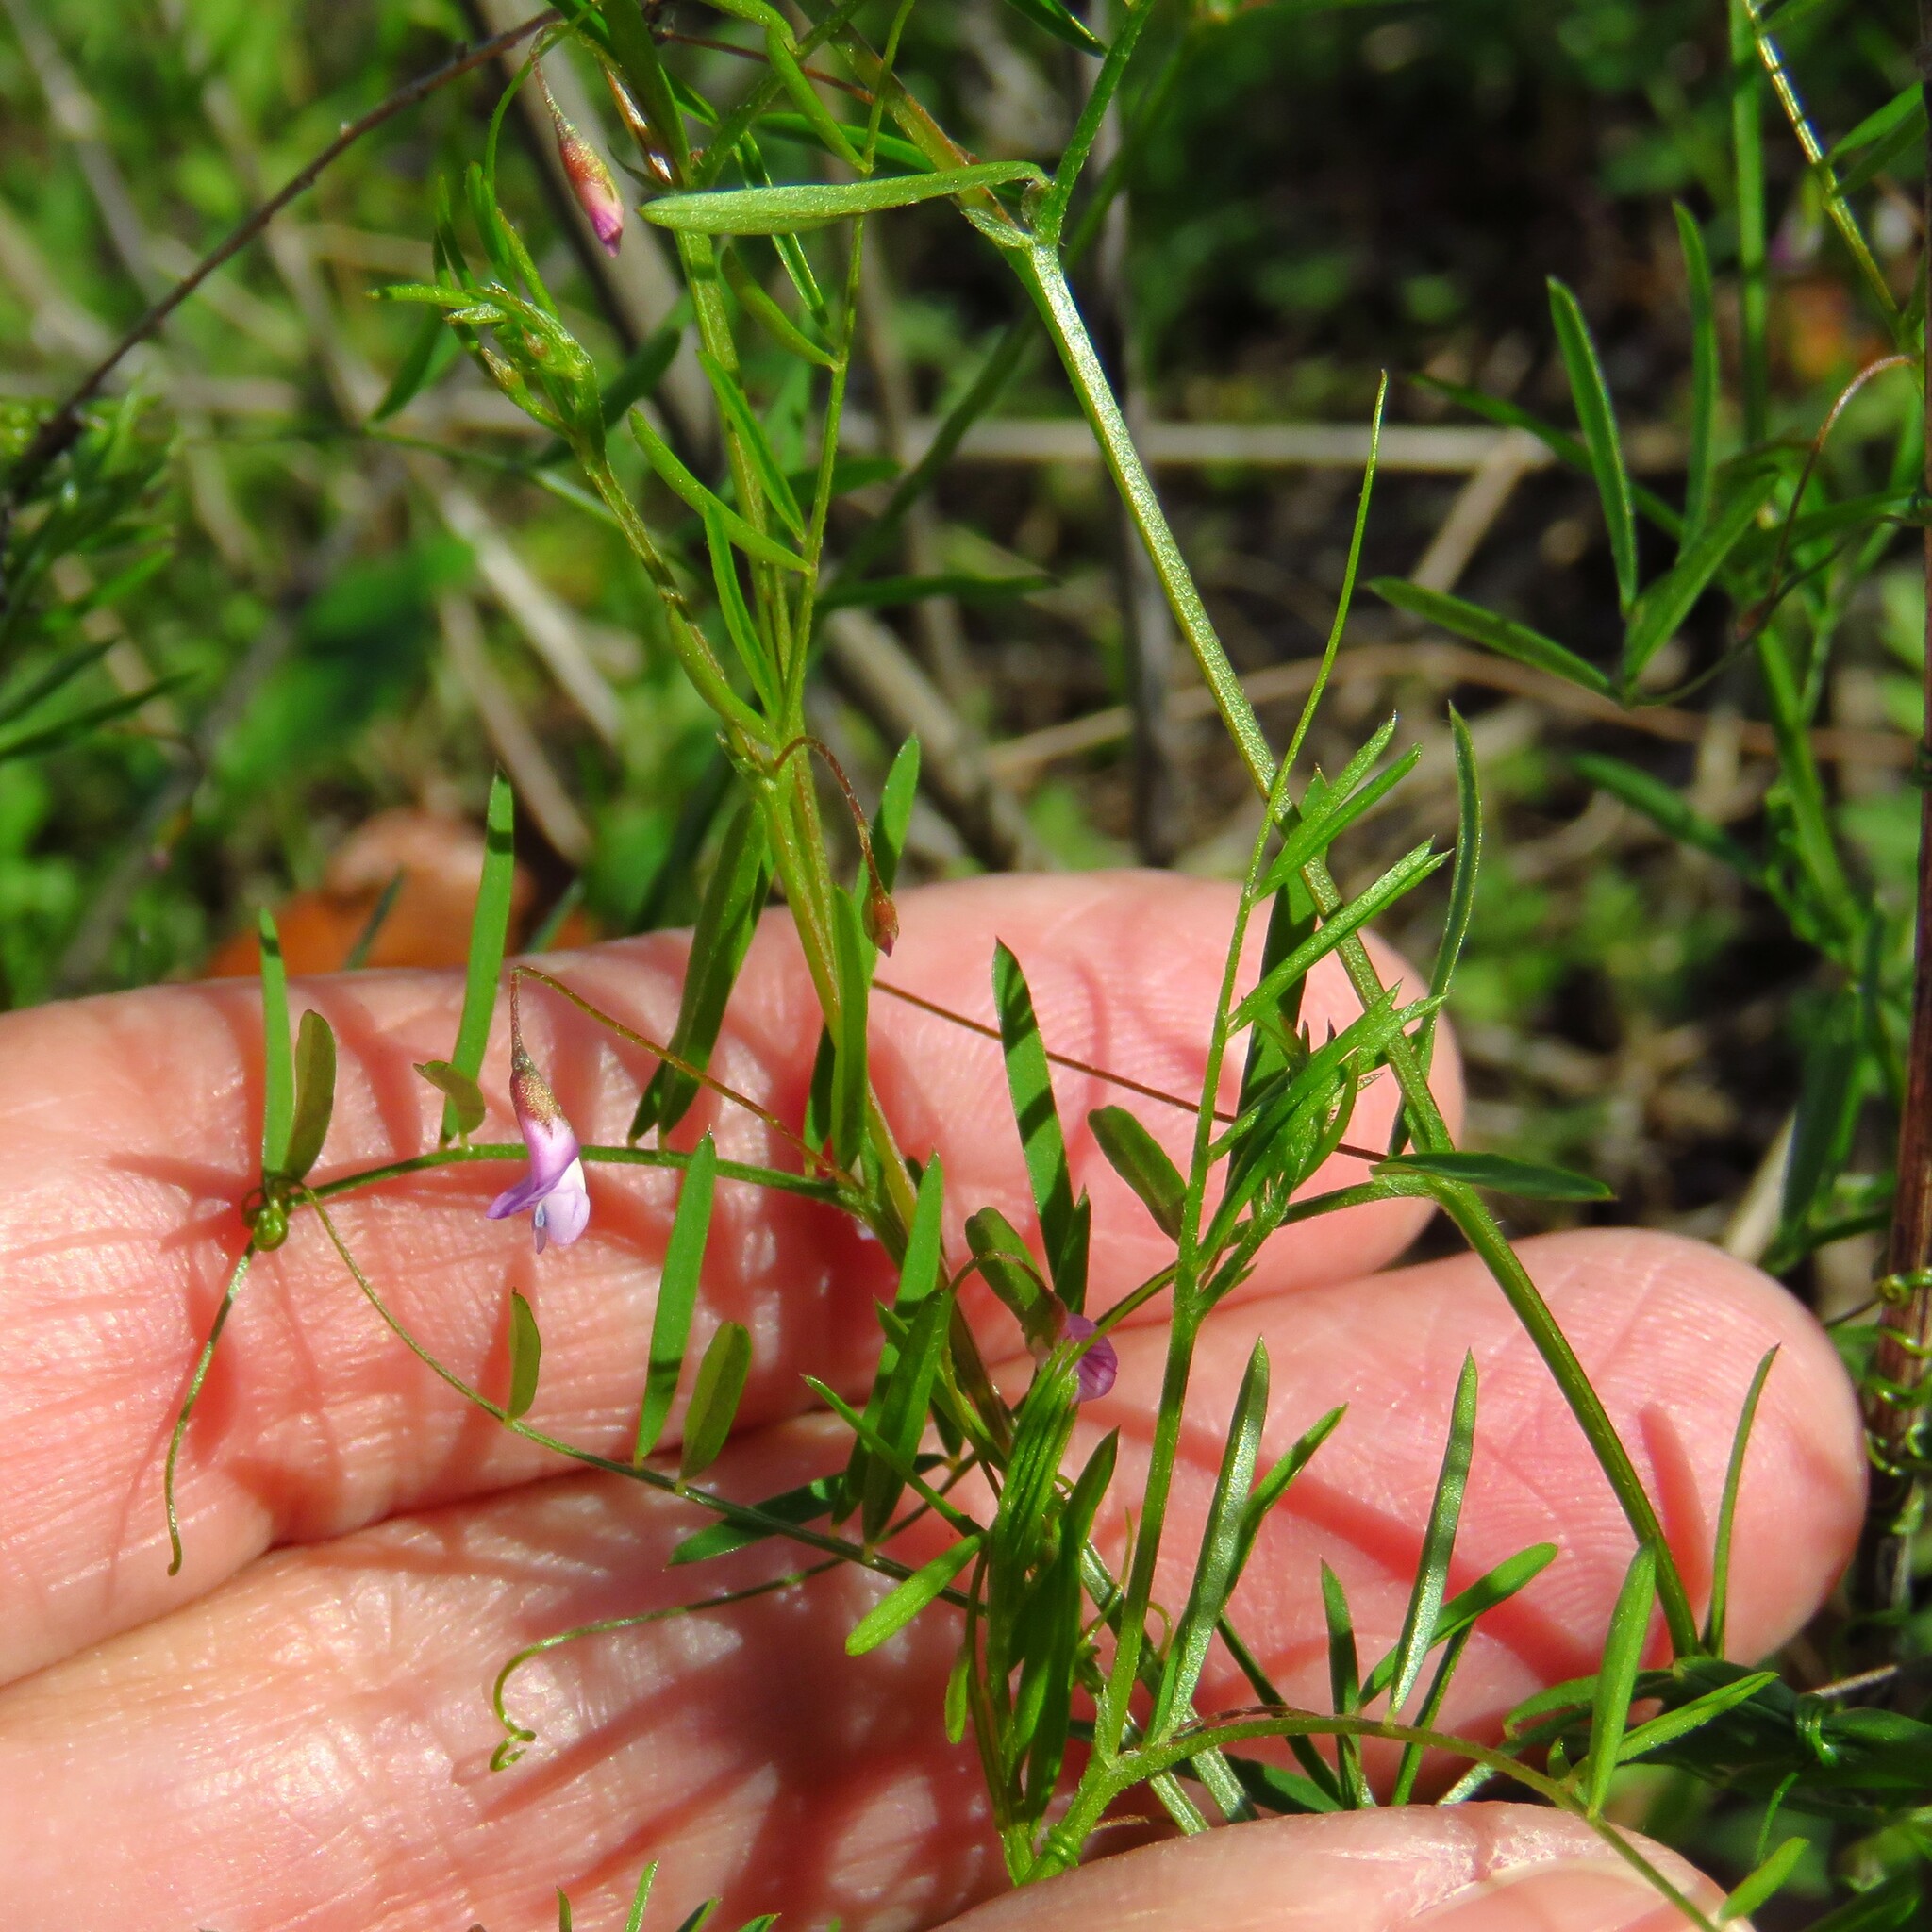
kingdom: Plantae
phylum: Tracheophyta
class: Magnoliopsida
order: Fabales
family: Fabaceae
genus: Vicia
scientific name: Vicia tetrasperma
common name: Smooth tare
